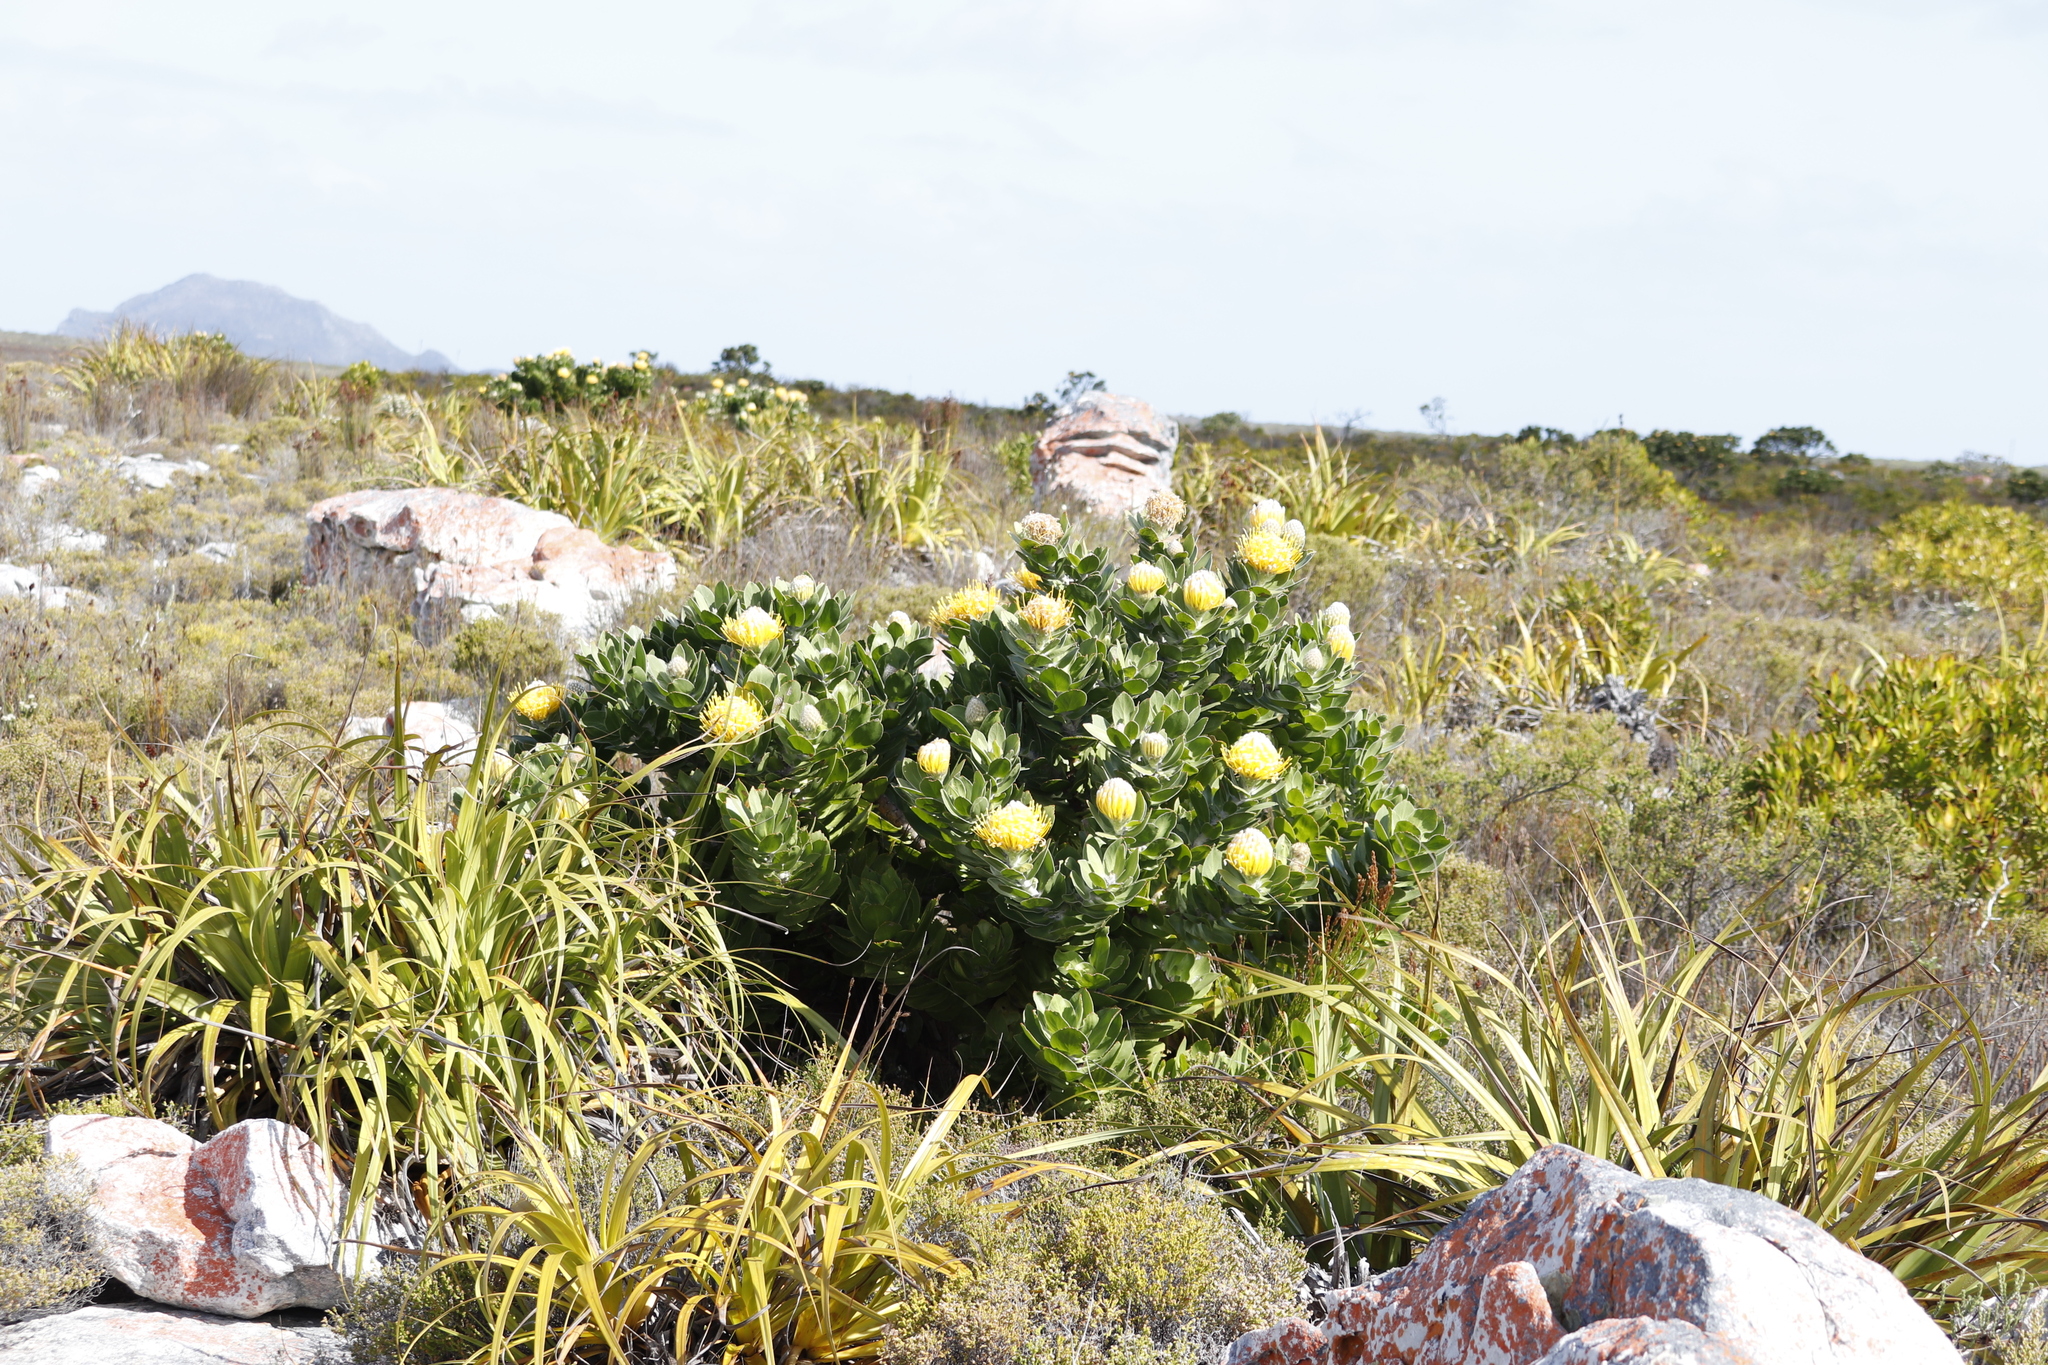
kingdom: Plantae
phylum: Tracheophyta
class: Magnoliopsida
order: Proteales
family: Proteaceae
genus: Leucospermum
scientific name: Leucospermum conocarpodendron
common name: Tree pincushion
